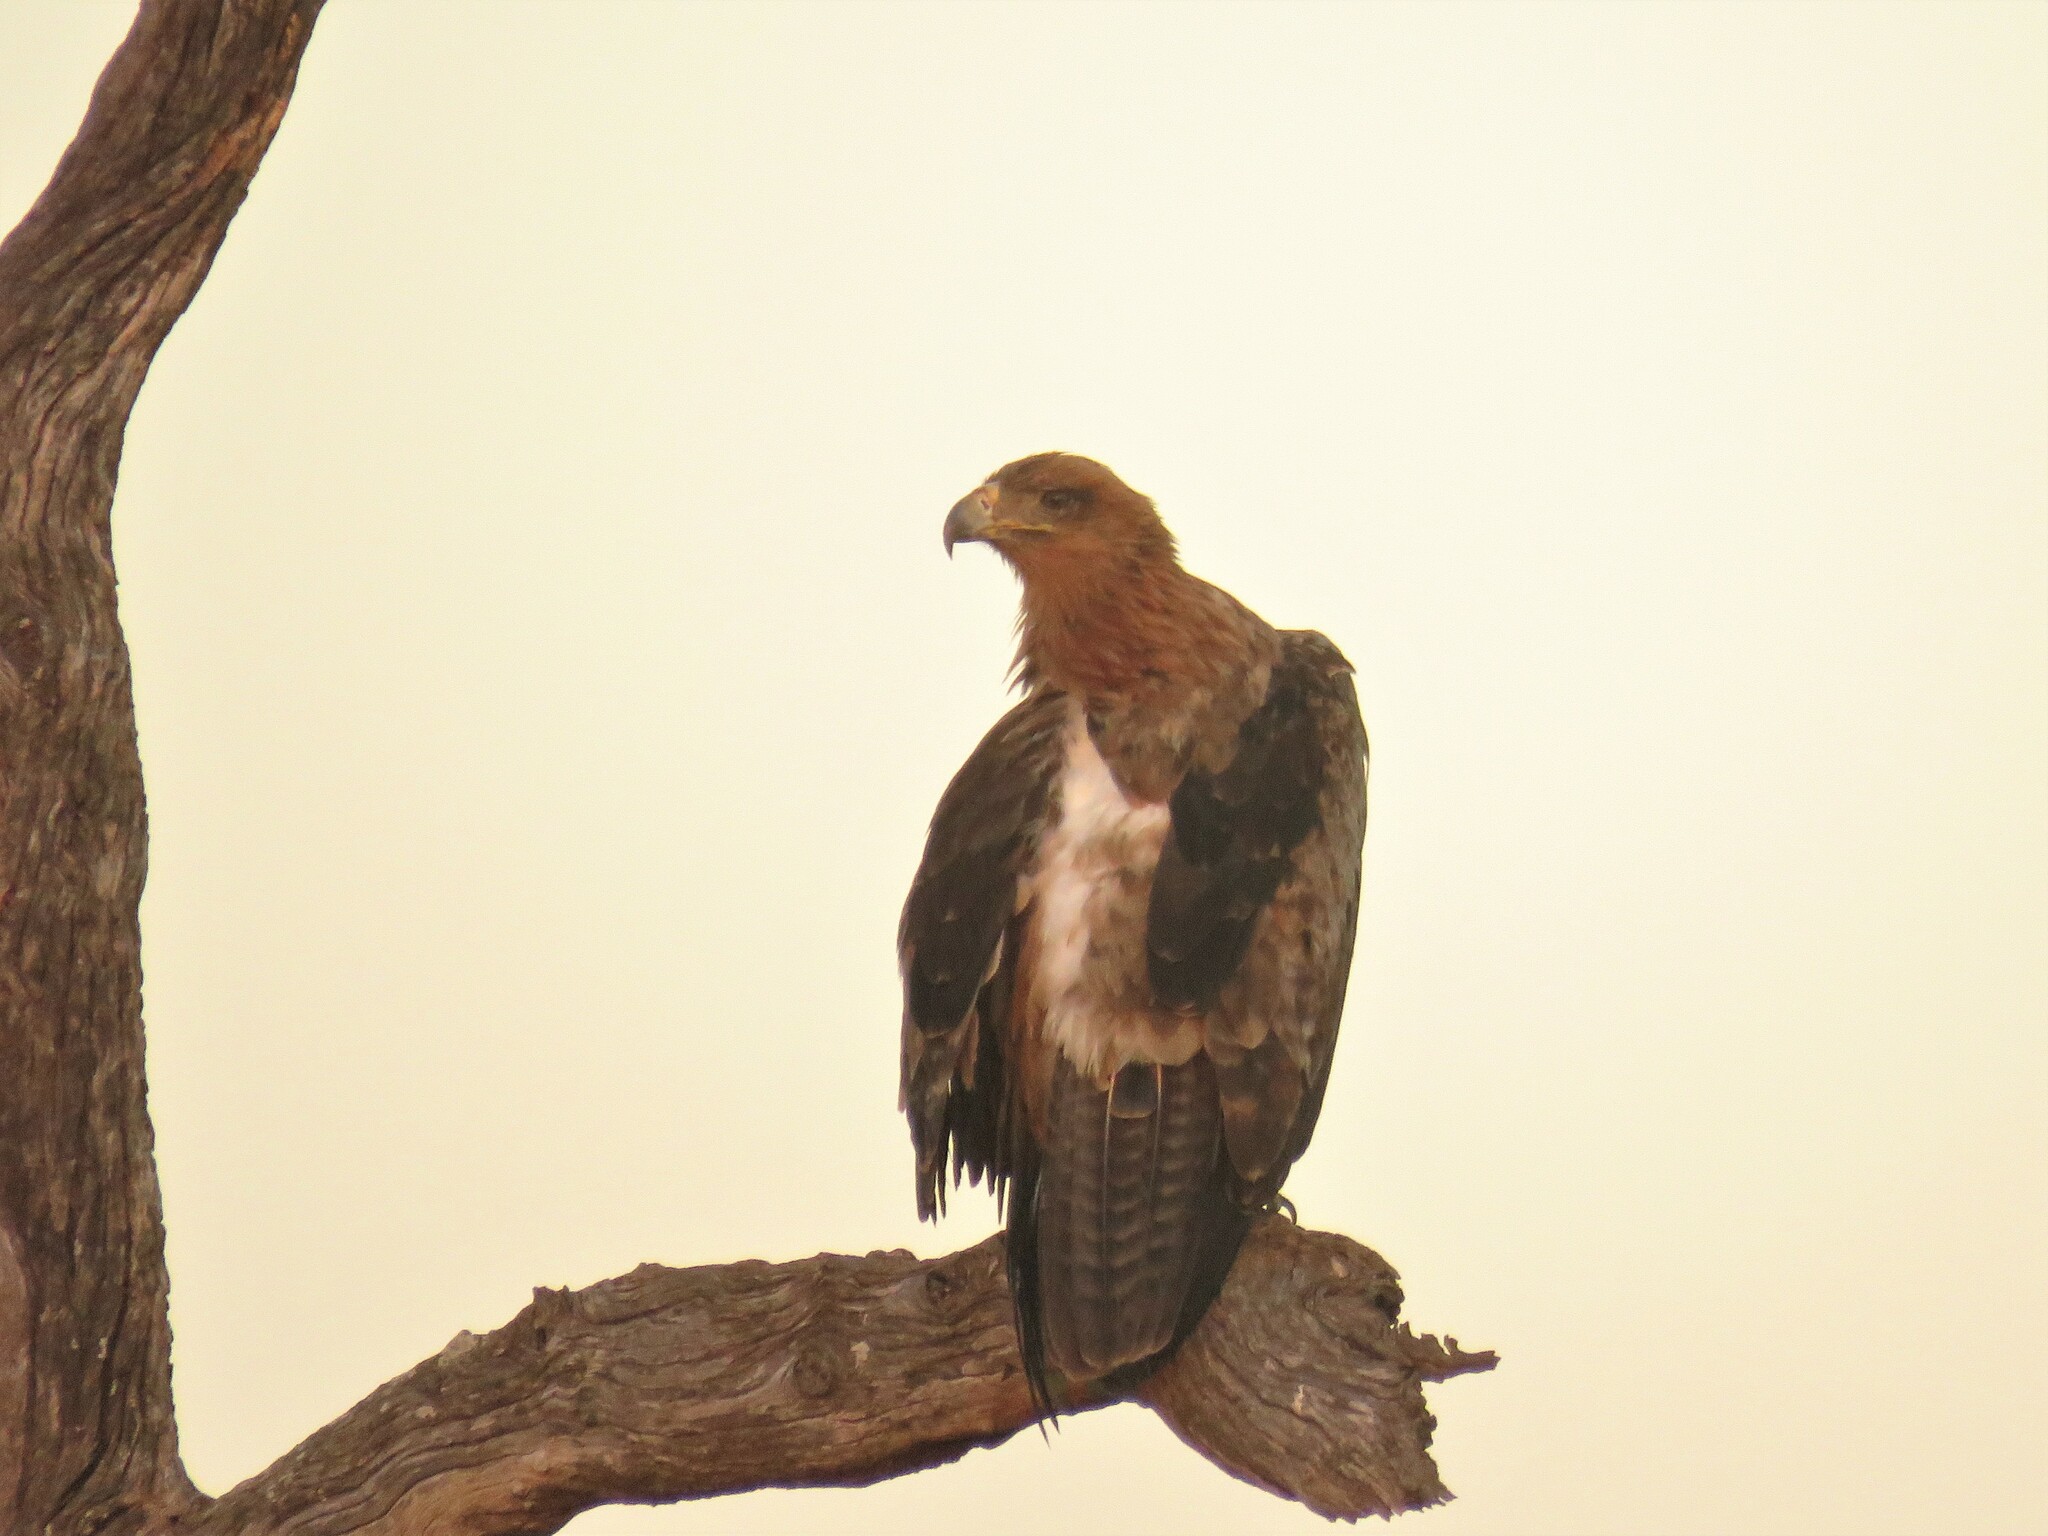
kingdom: Animalia
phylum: Chordata
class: Aves
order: Accipitriformes
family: Accipitridae
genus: Aquila
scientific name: Aquila rapax
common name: Tawny eagle
